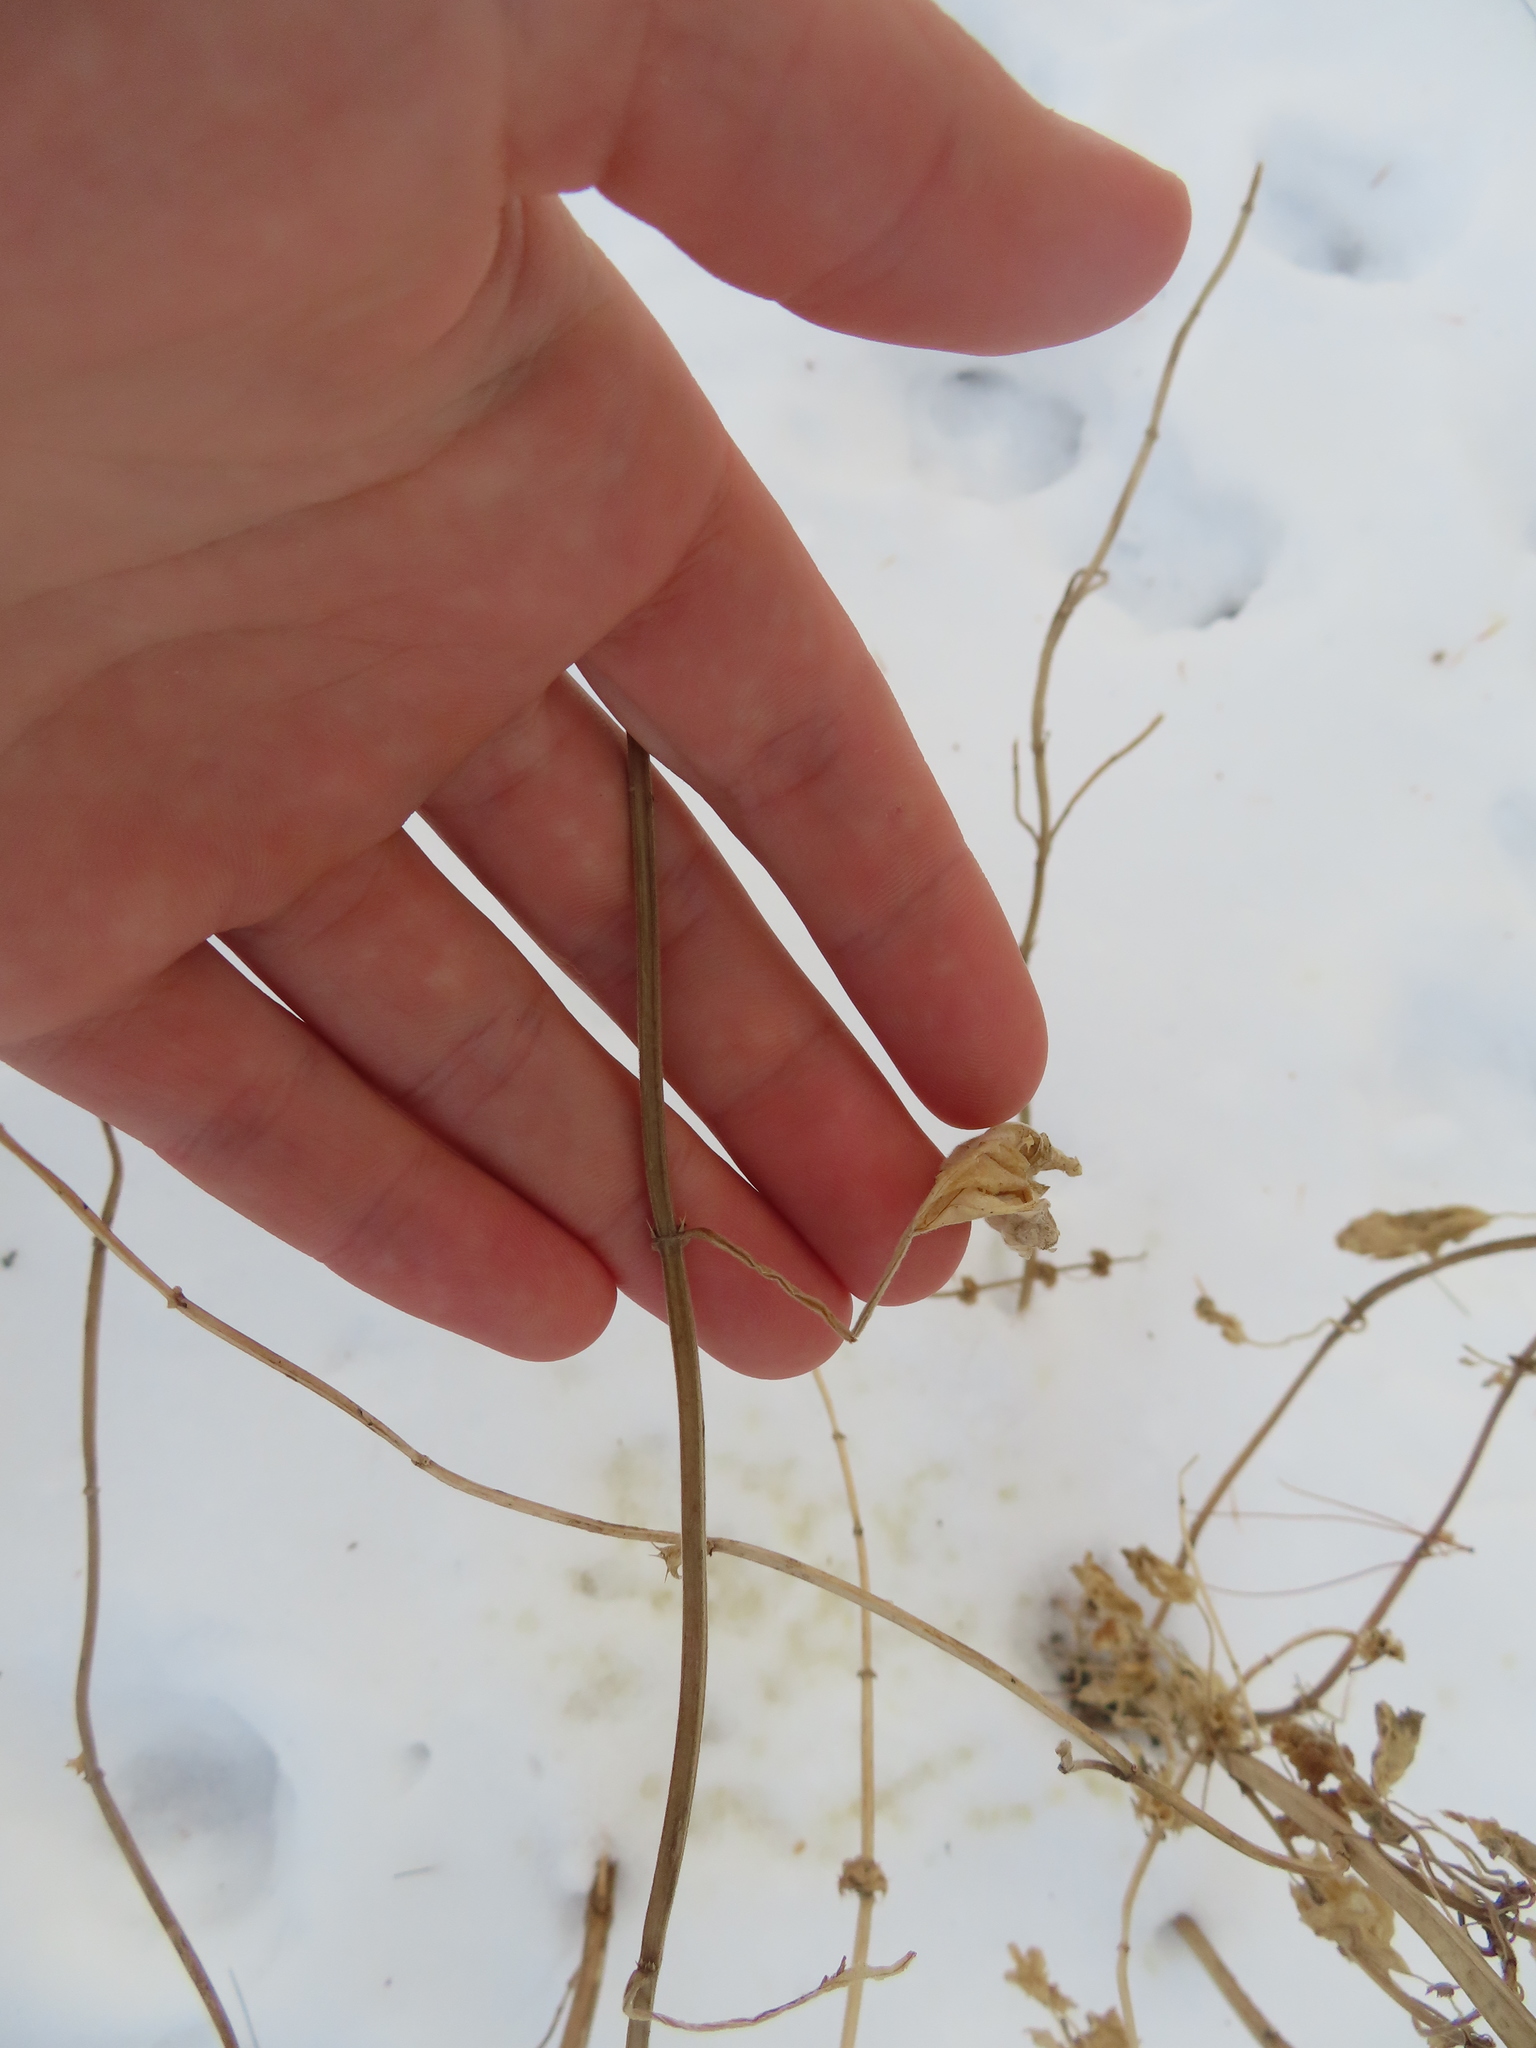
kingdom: Plantae
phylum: Tracheophyta
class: Magnoliopsida
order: Lamiales
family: Lamiaceae
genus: Leonurus
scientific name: Leonurus cardiaca
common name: Motherwort
